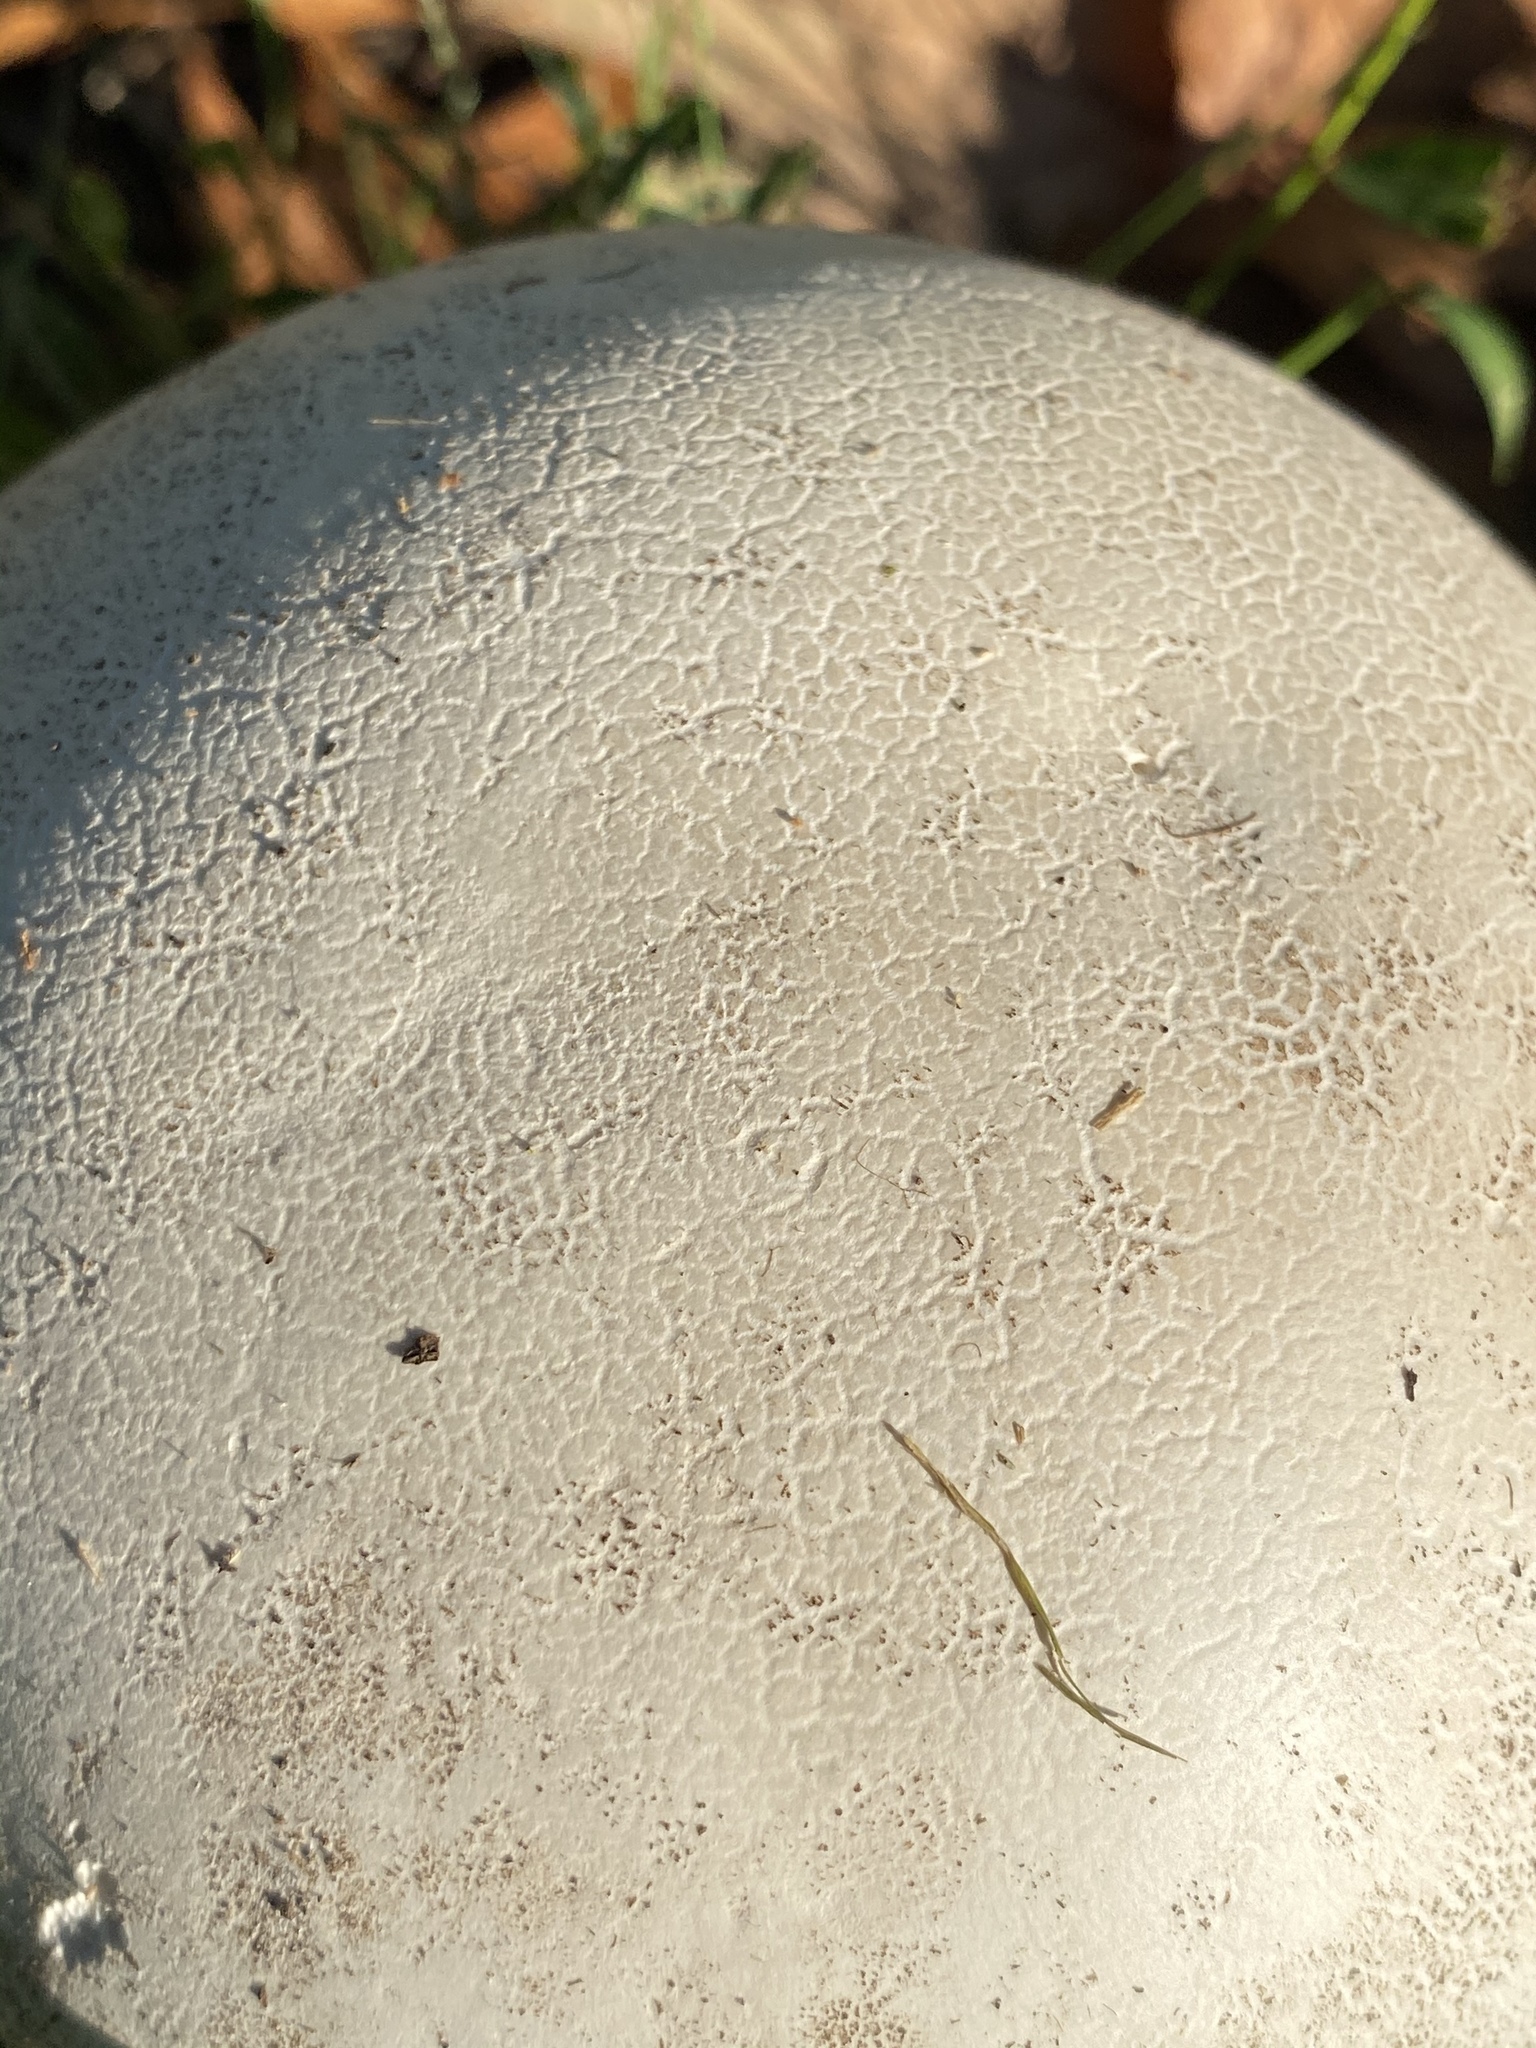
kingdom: Fungi
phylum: Basidiomycota
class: Agaricomycetes
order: Agaricales
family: Lycoperdaceae
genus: Calvatia
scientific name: Calvatia gigantea
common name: Giant puffball
